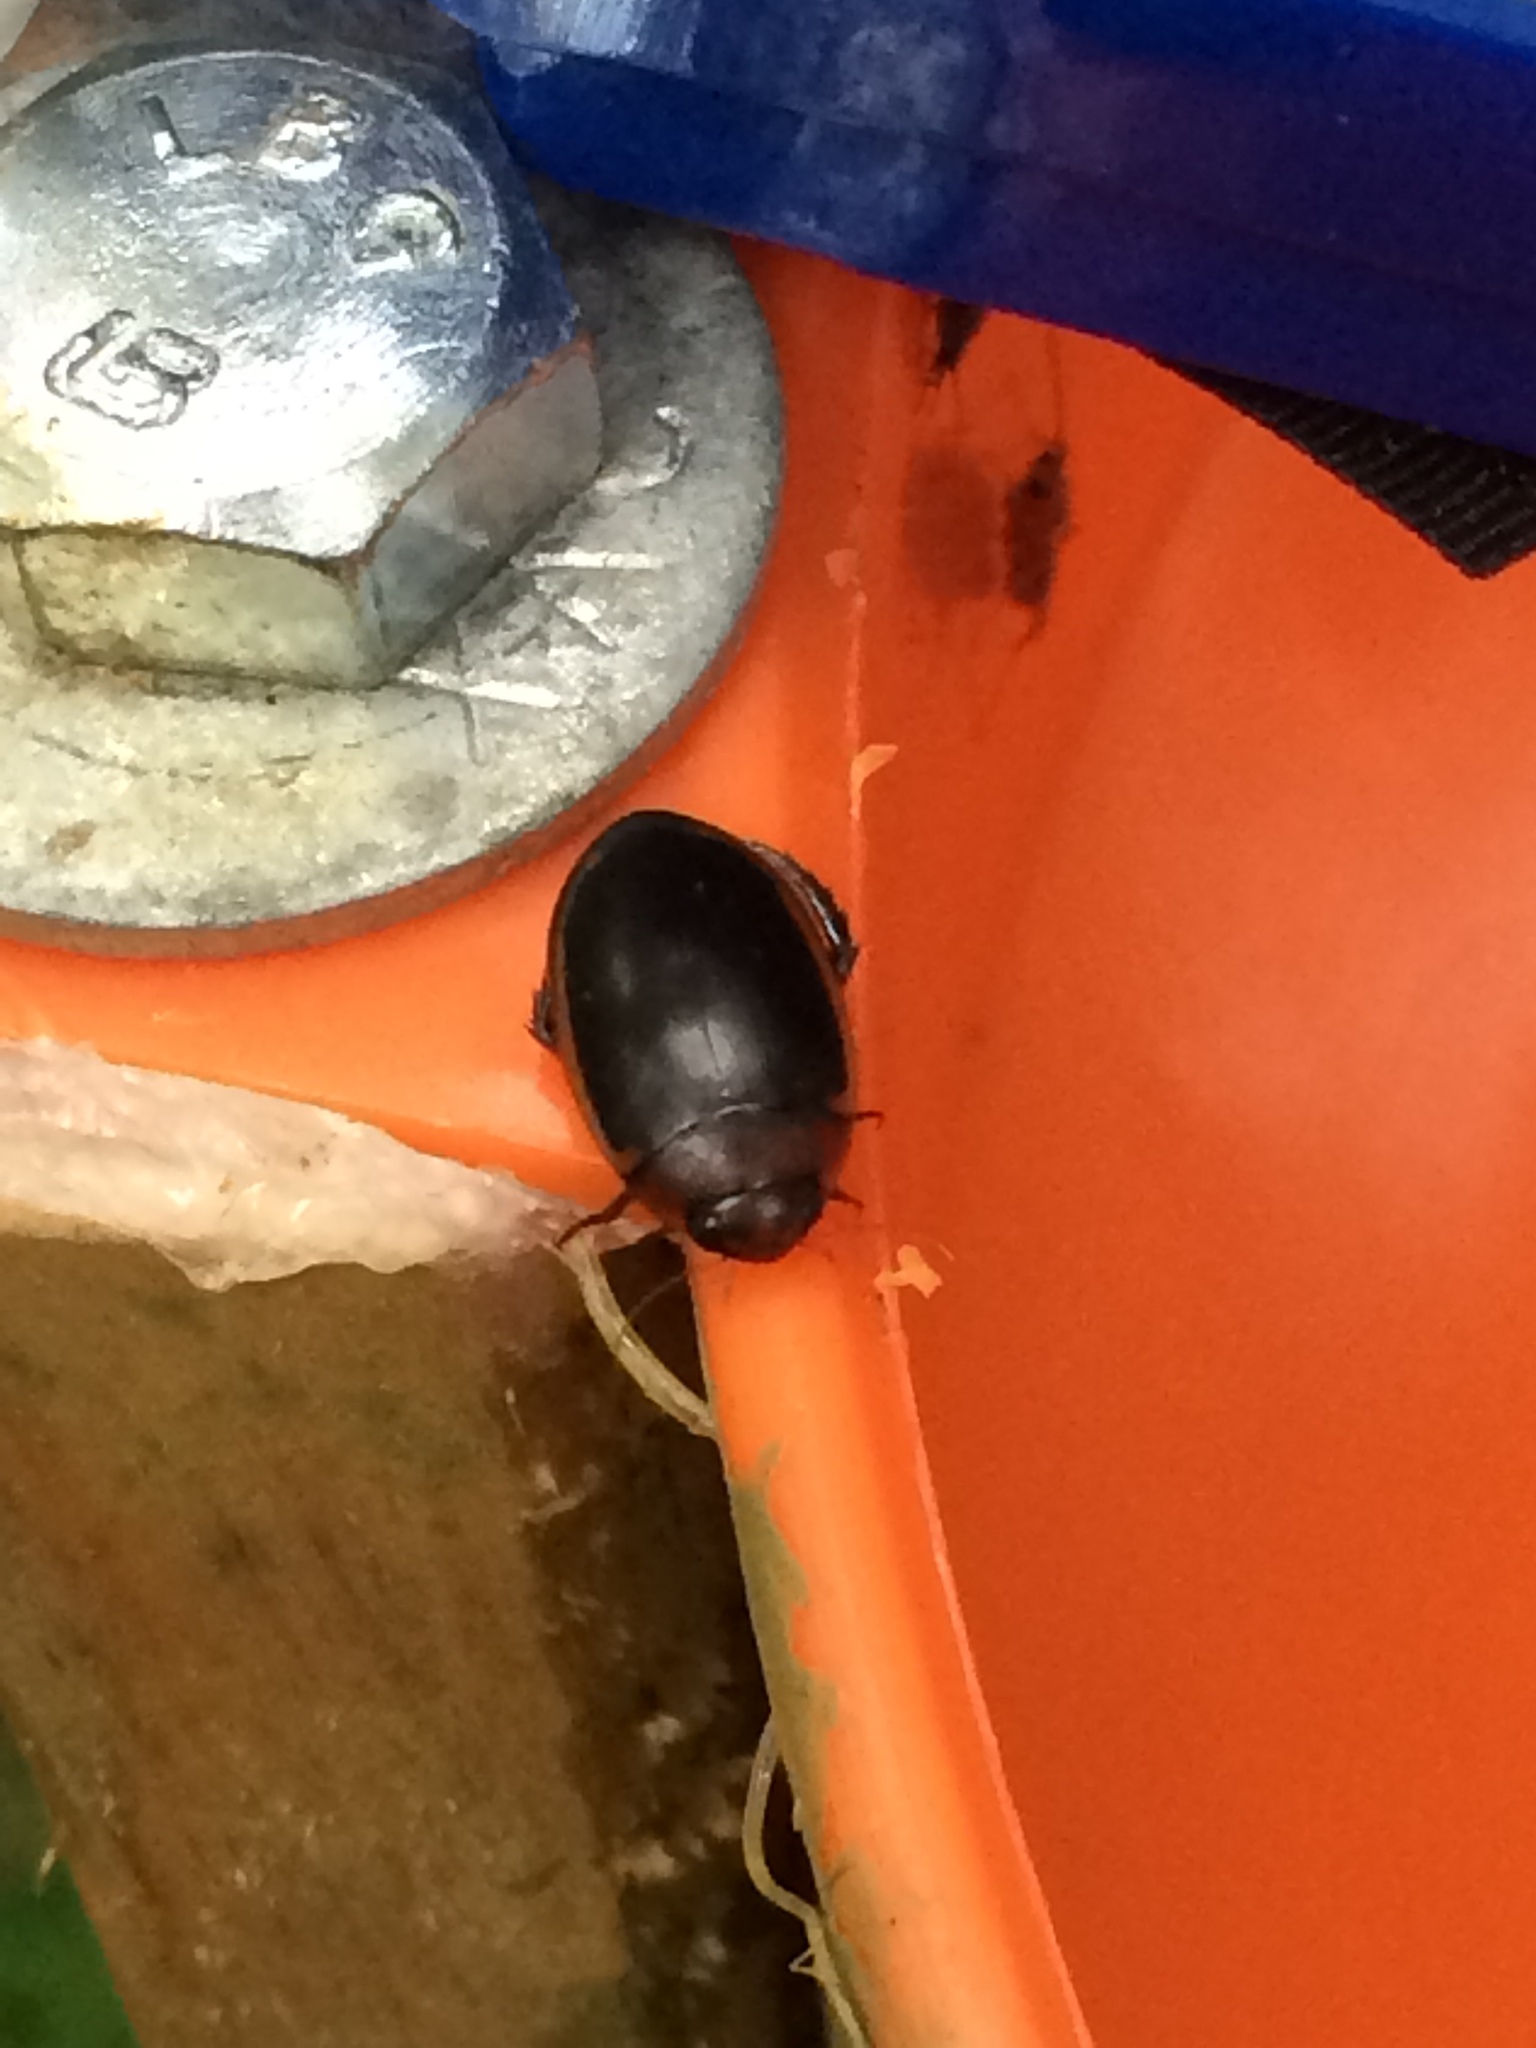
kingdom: Animalia
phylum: Arthropoda
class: Insecta
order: Coleoptera
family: Dytiscidae
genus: Hydaticus
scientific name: Hydaticus bimarginatus
